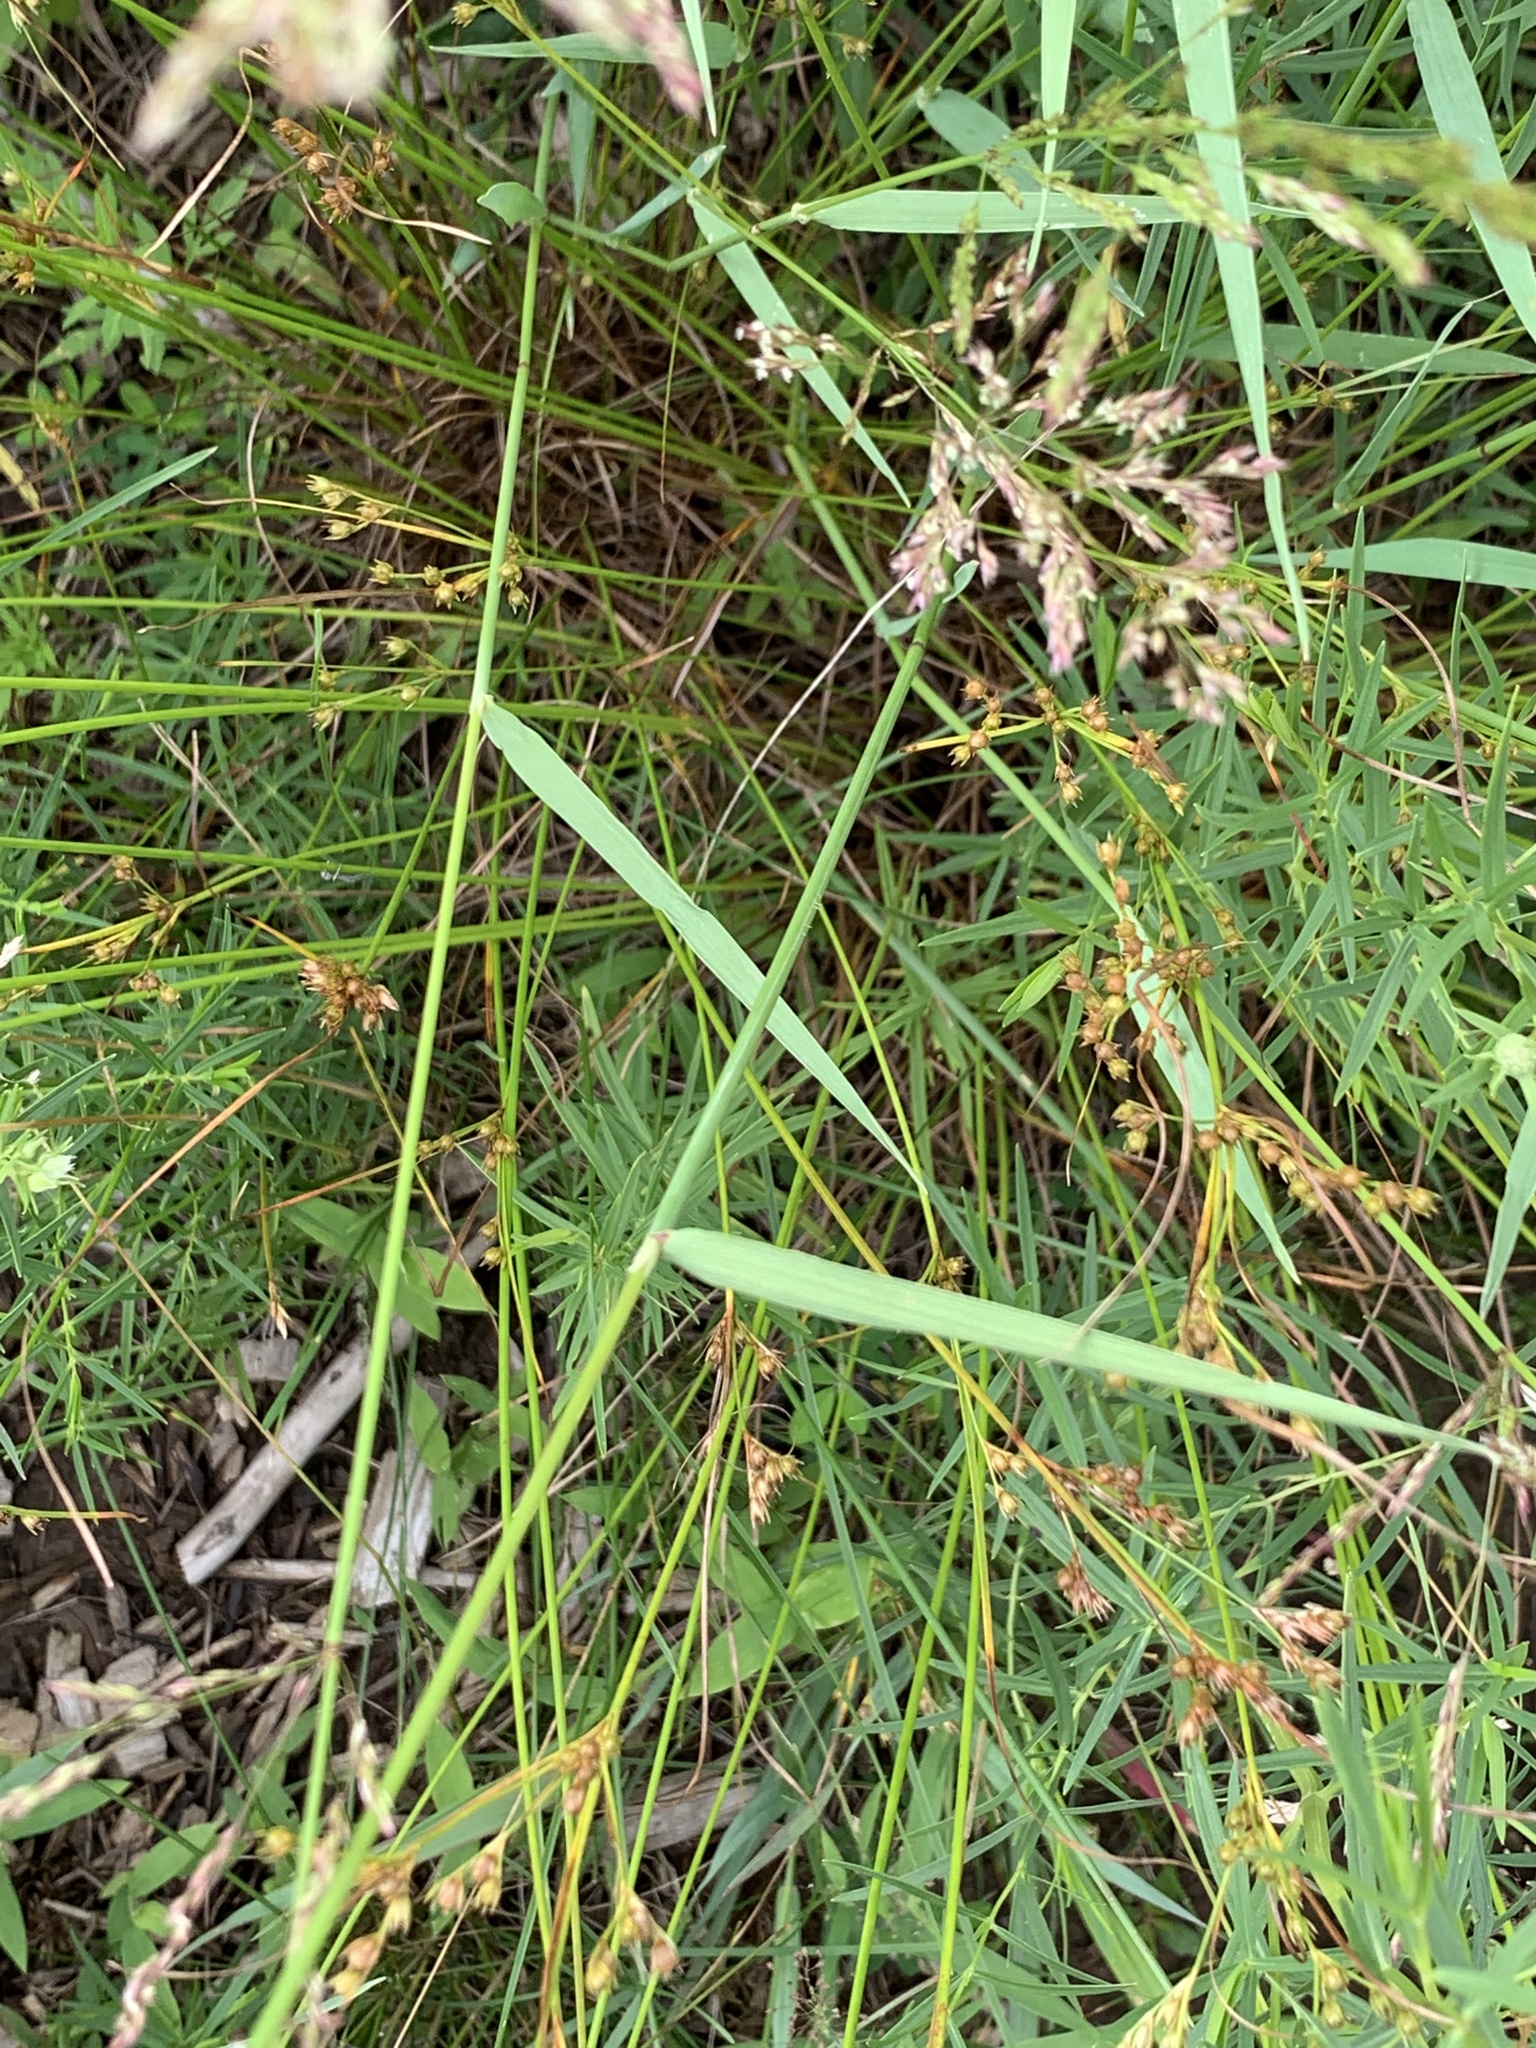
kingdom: Plantae
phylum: Tracheophyta
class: Liliopsida
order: Poales
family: Poaceae
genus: Agrostis
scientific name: Agrostis gigantea
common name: Black bent
